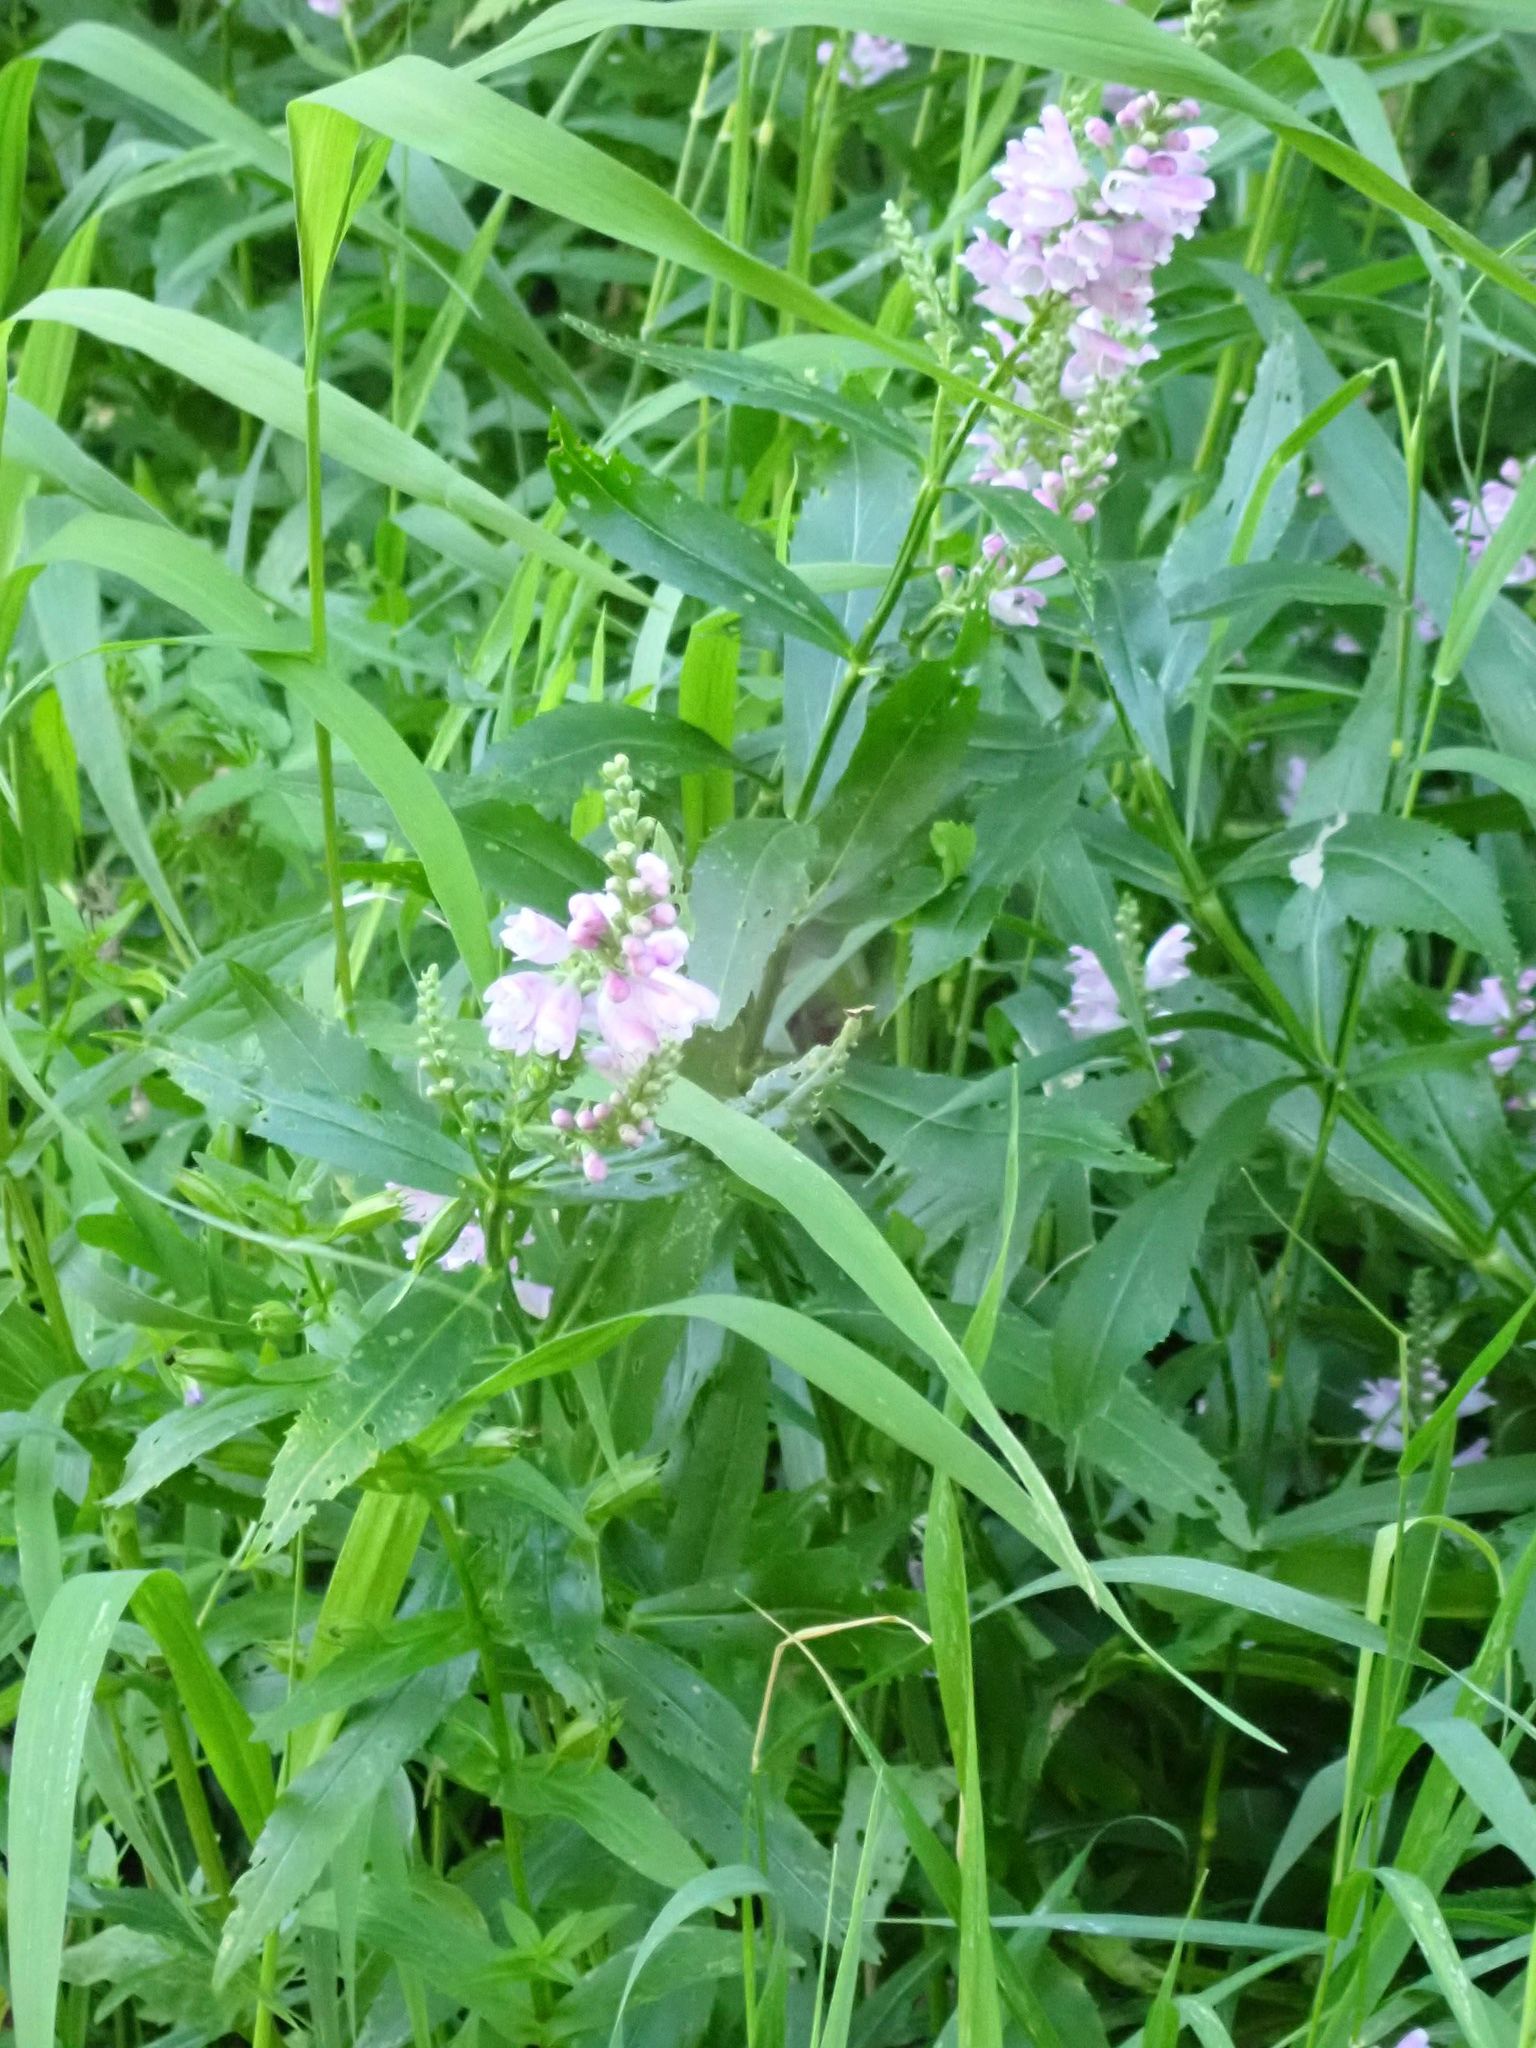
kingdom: Plantae
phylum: Tracheophyta
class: Magnoliopsida
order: Lamiales
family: Lamiaceae
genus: Physostegia
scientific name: Physostegia virginiana
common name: Obedient-plant
